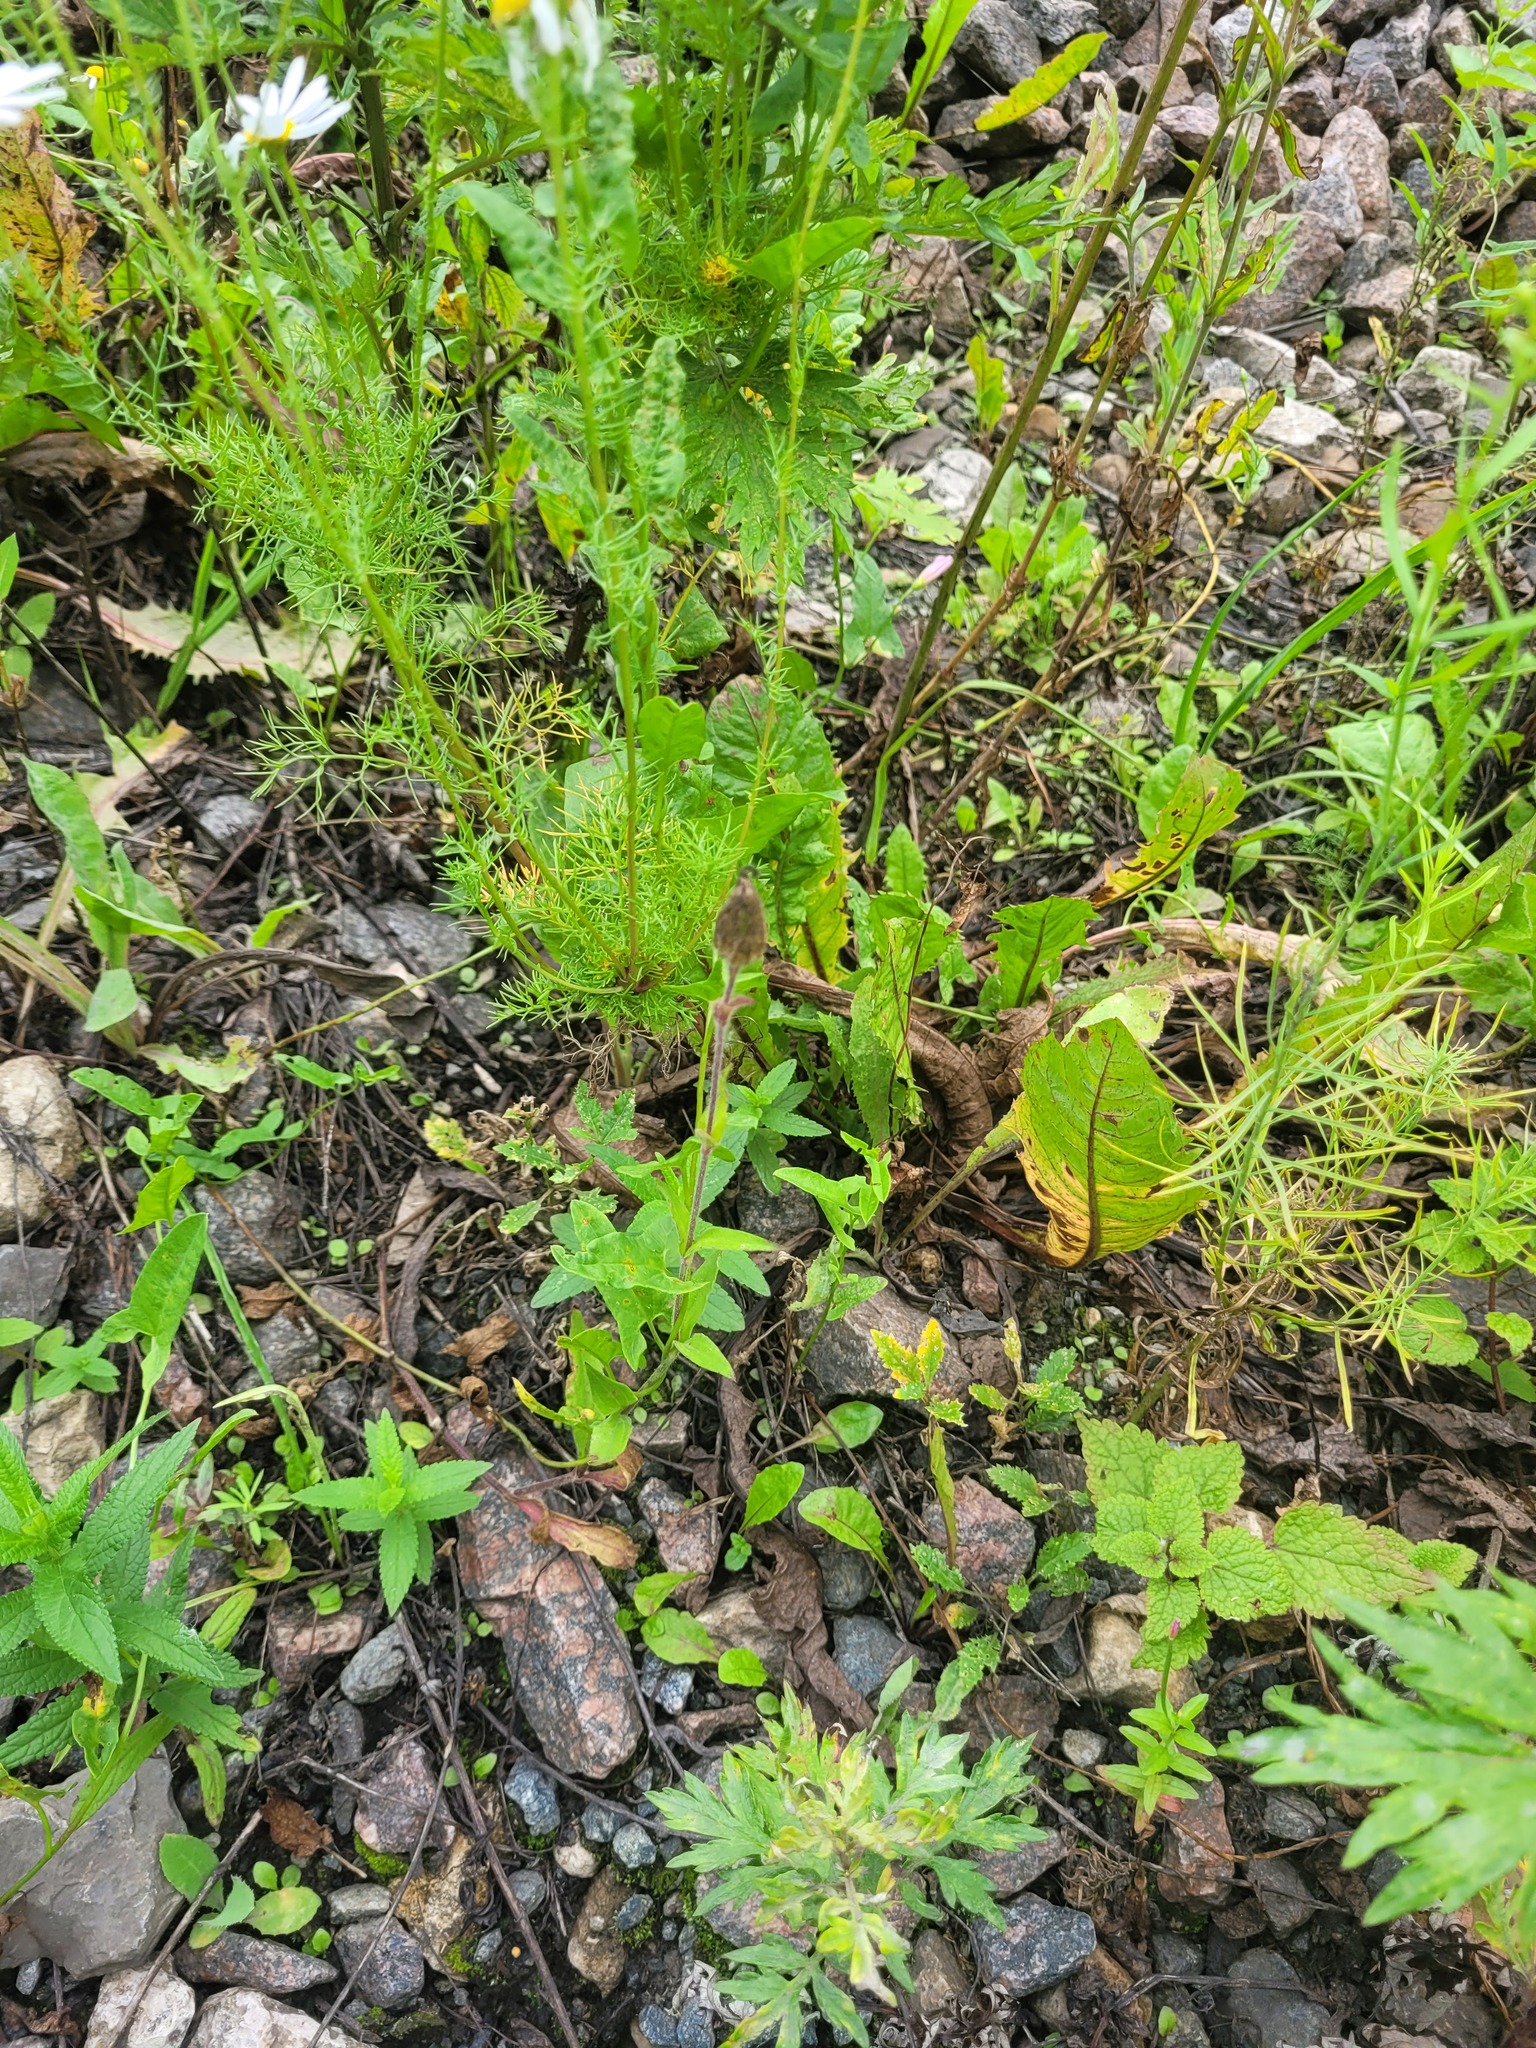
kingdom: Plantae
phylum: Tracheophyta
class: Magnoliopsida
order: Caryophyllales
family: Caryophyllaceae
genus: Silene
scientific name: Silene latifolia
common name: White campion
